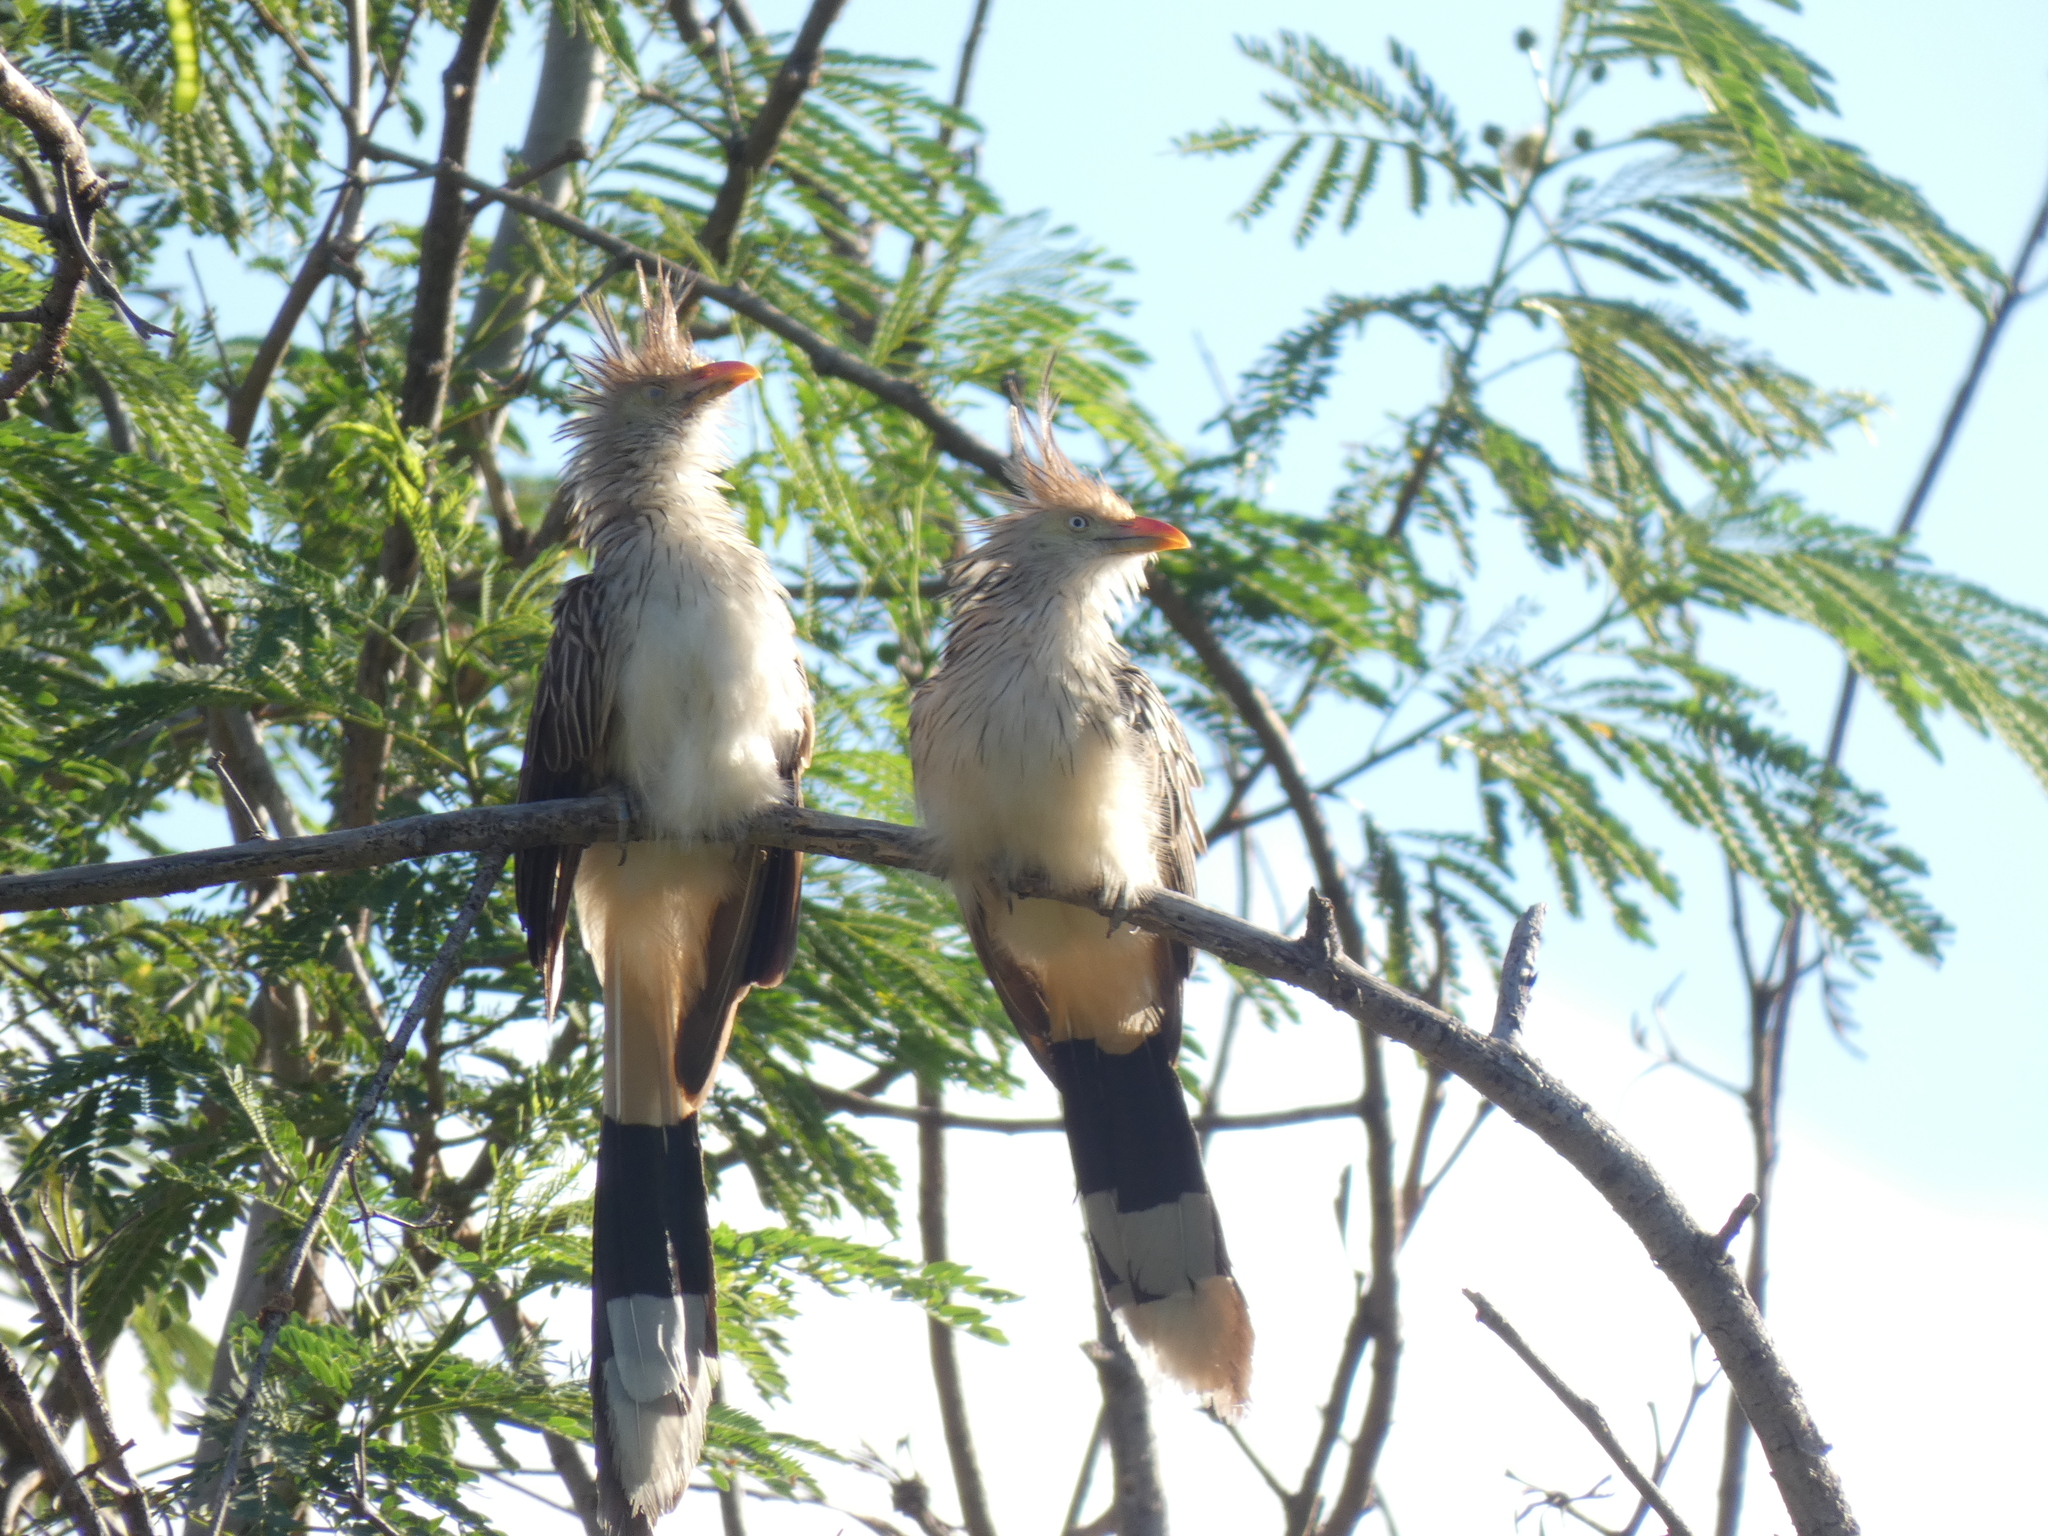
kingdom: Animalia
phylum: Chordata
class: Aves
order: Cuculiformes
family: Cuculidae
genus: Guira
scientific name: Guira guira
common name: Guira cuckoo
